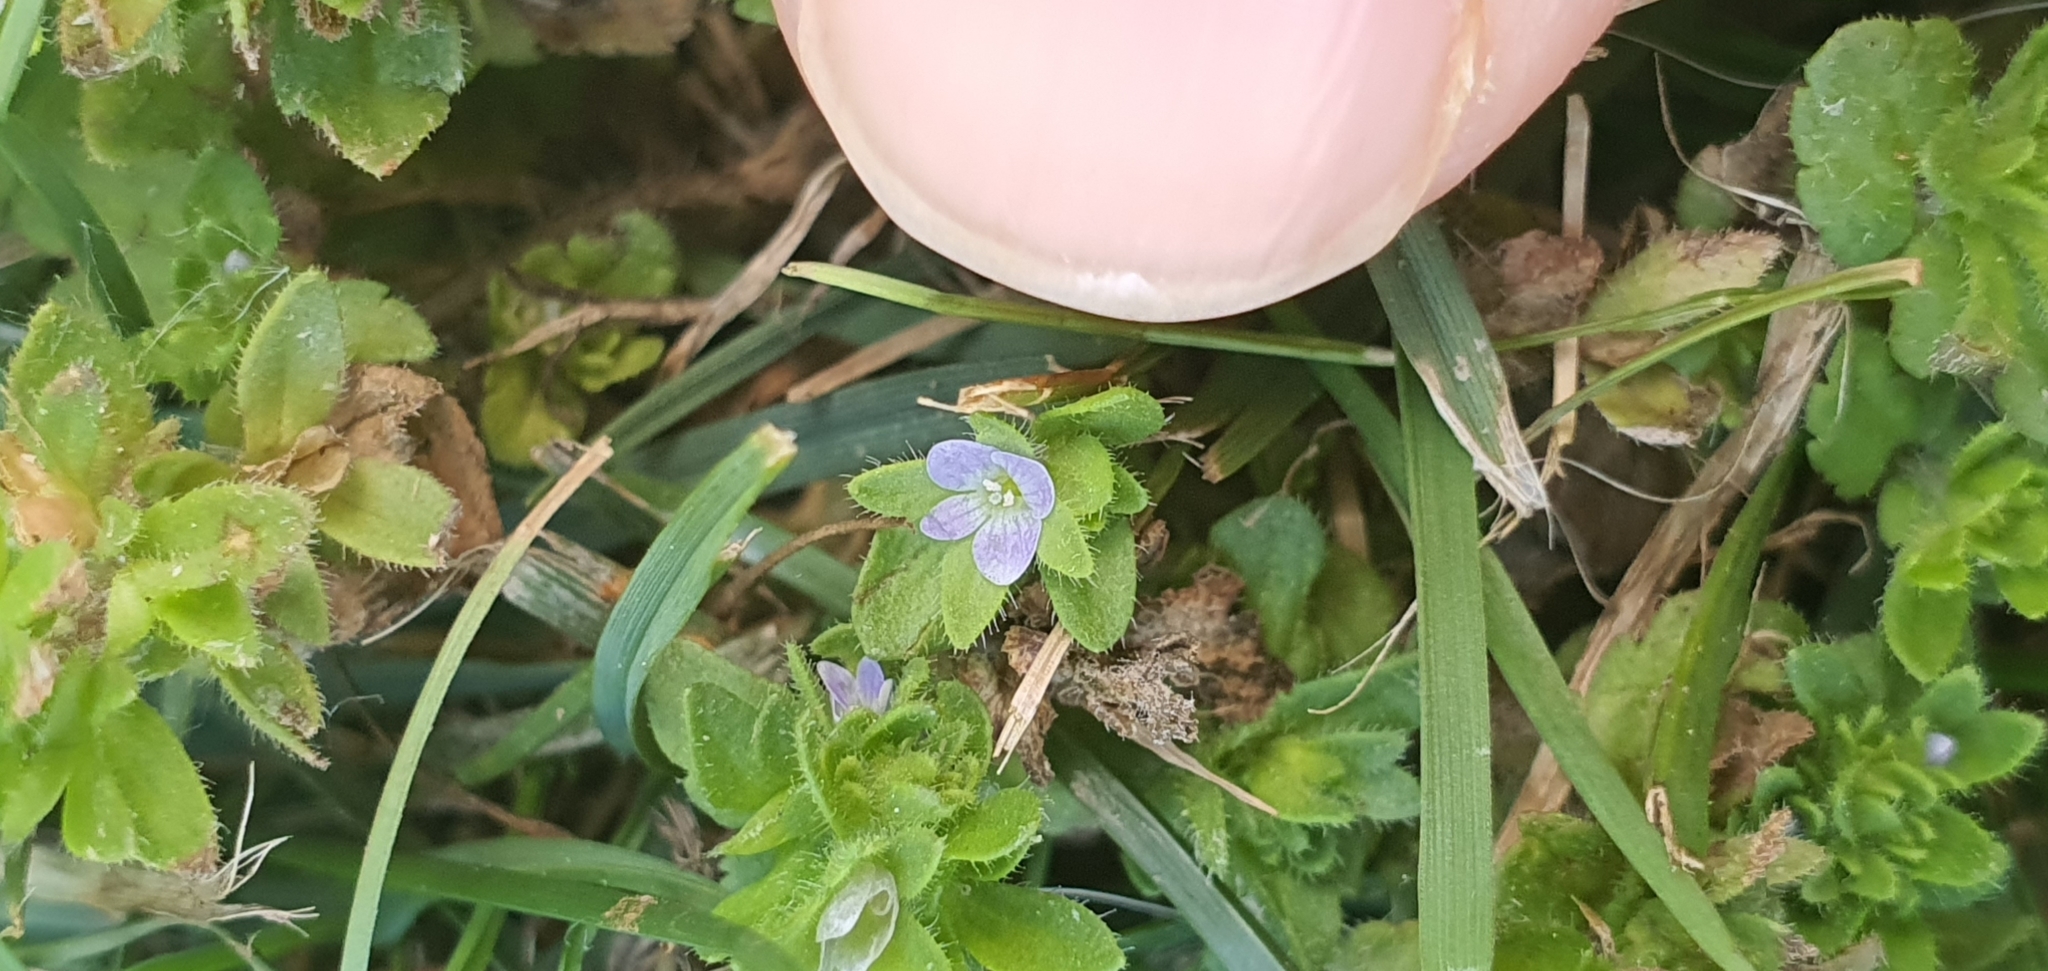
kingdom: Plantae
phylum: Tracheophyta
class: Magnoliopsida
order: Lamiales
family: Plantaginaceae
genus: Veronica
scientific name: Veronica arvensis
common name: Corn speedwell
